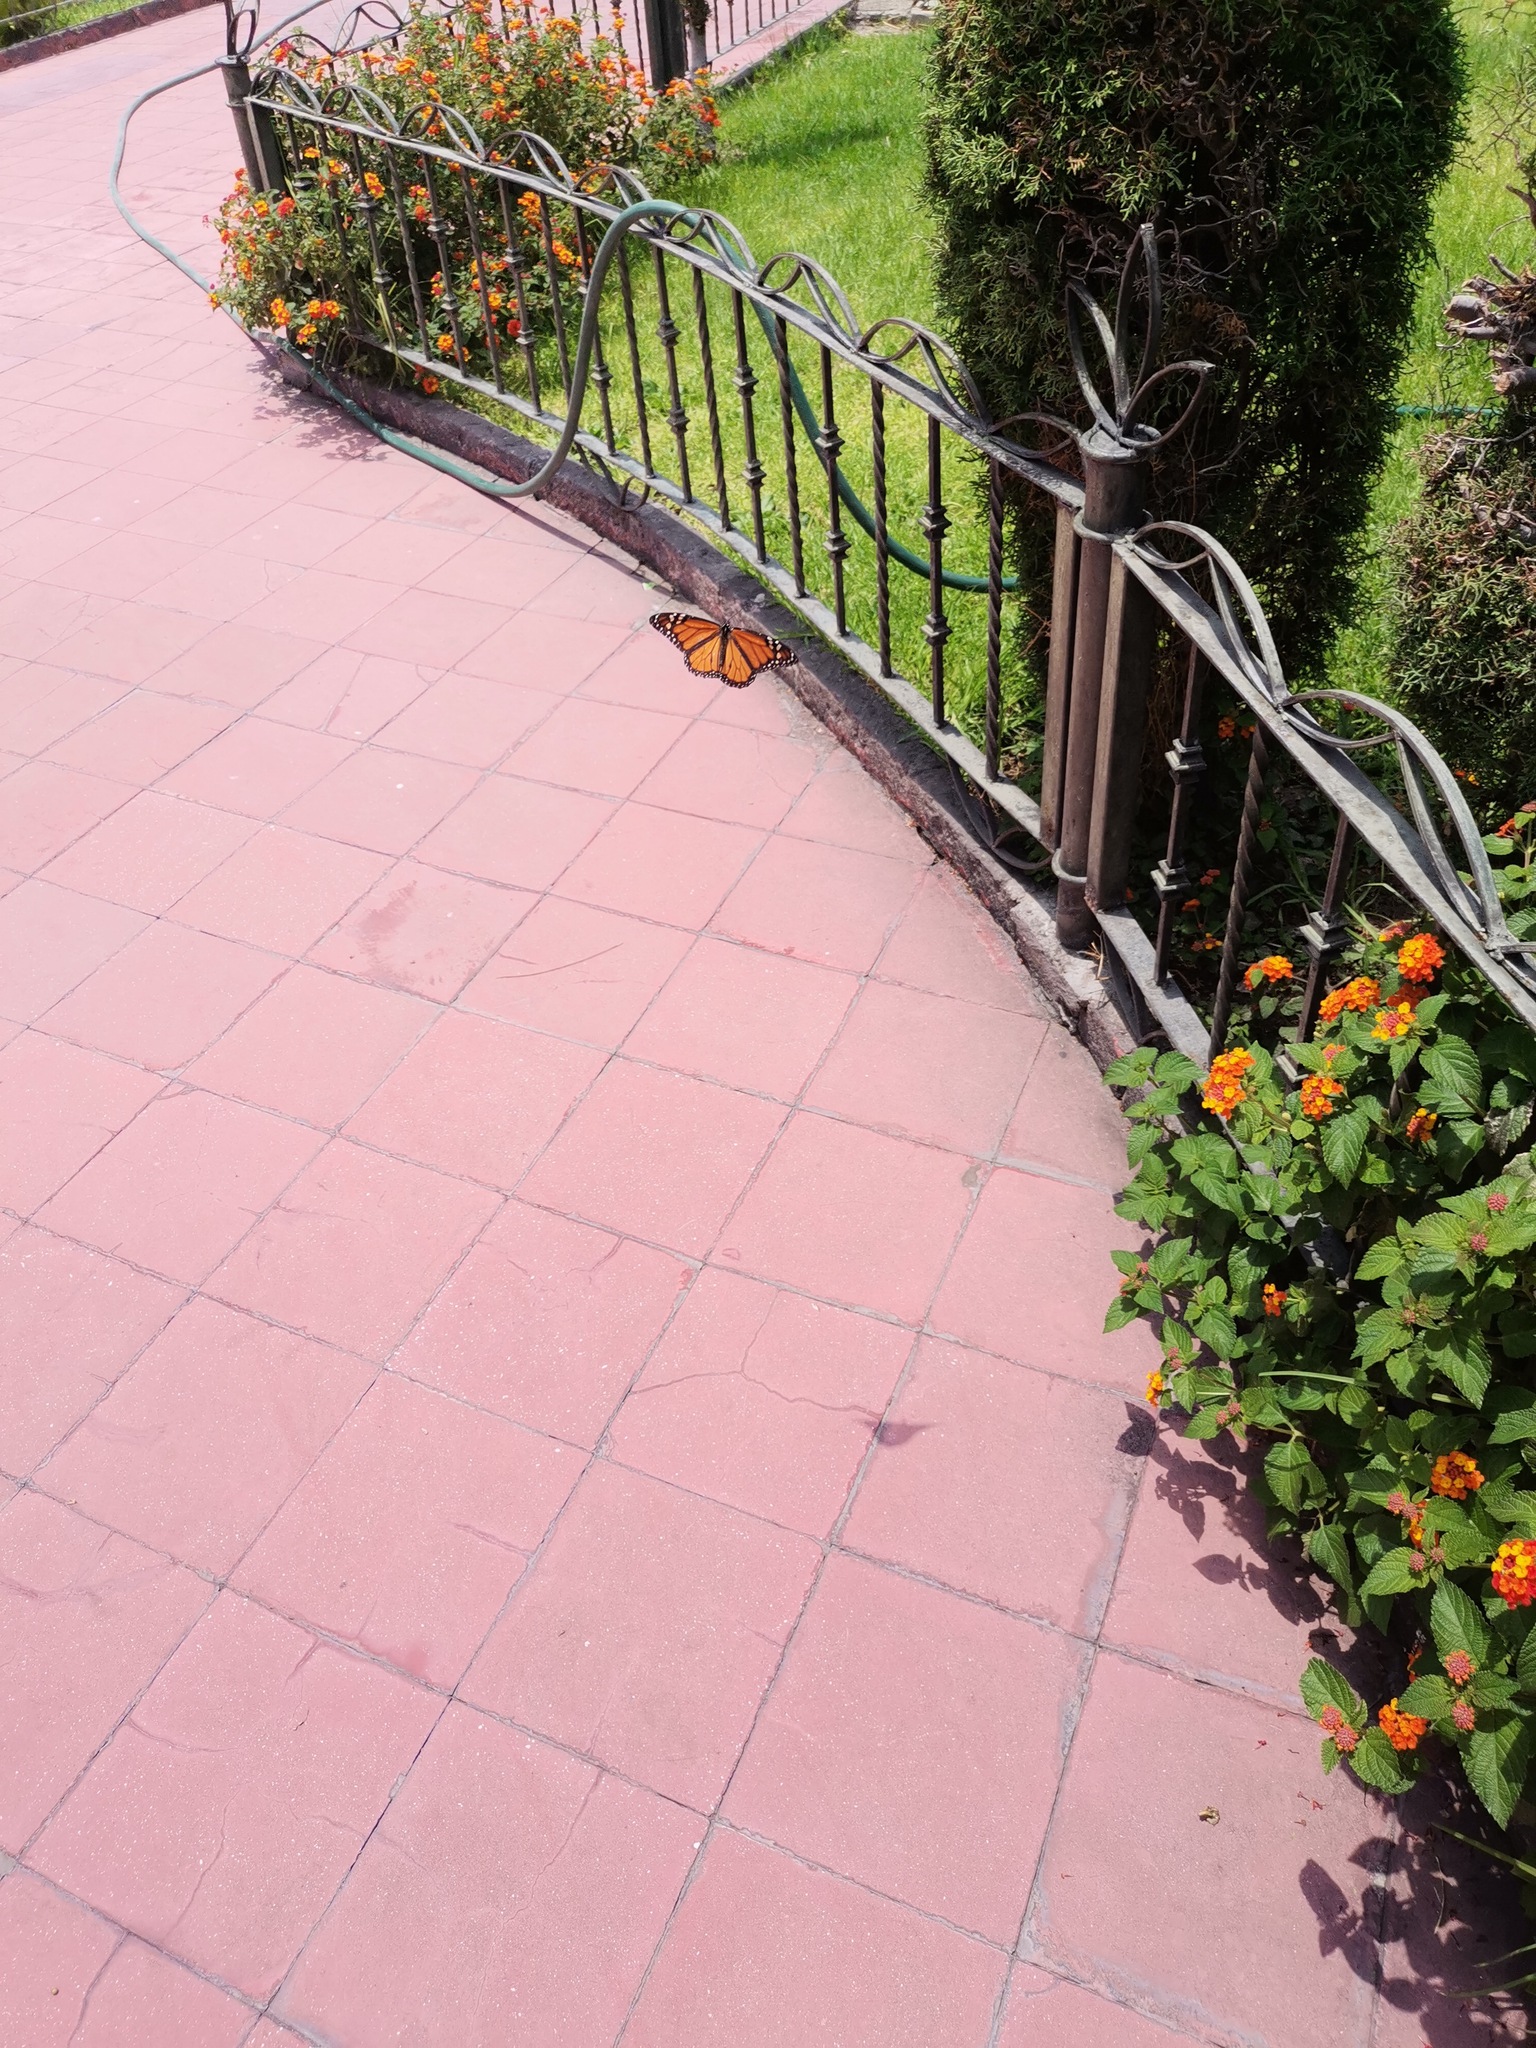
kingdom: Animalia
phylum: Arthropoda
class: Insecta
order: Lepidoptera
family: Nymphalidae
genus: Danaus
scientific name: Danaus plexippus
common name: Monarch
